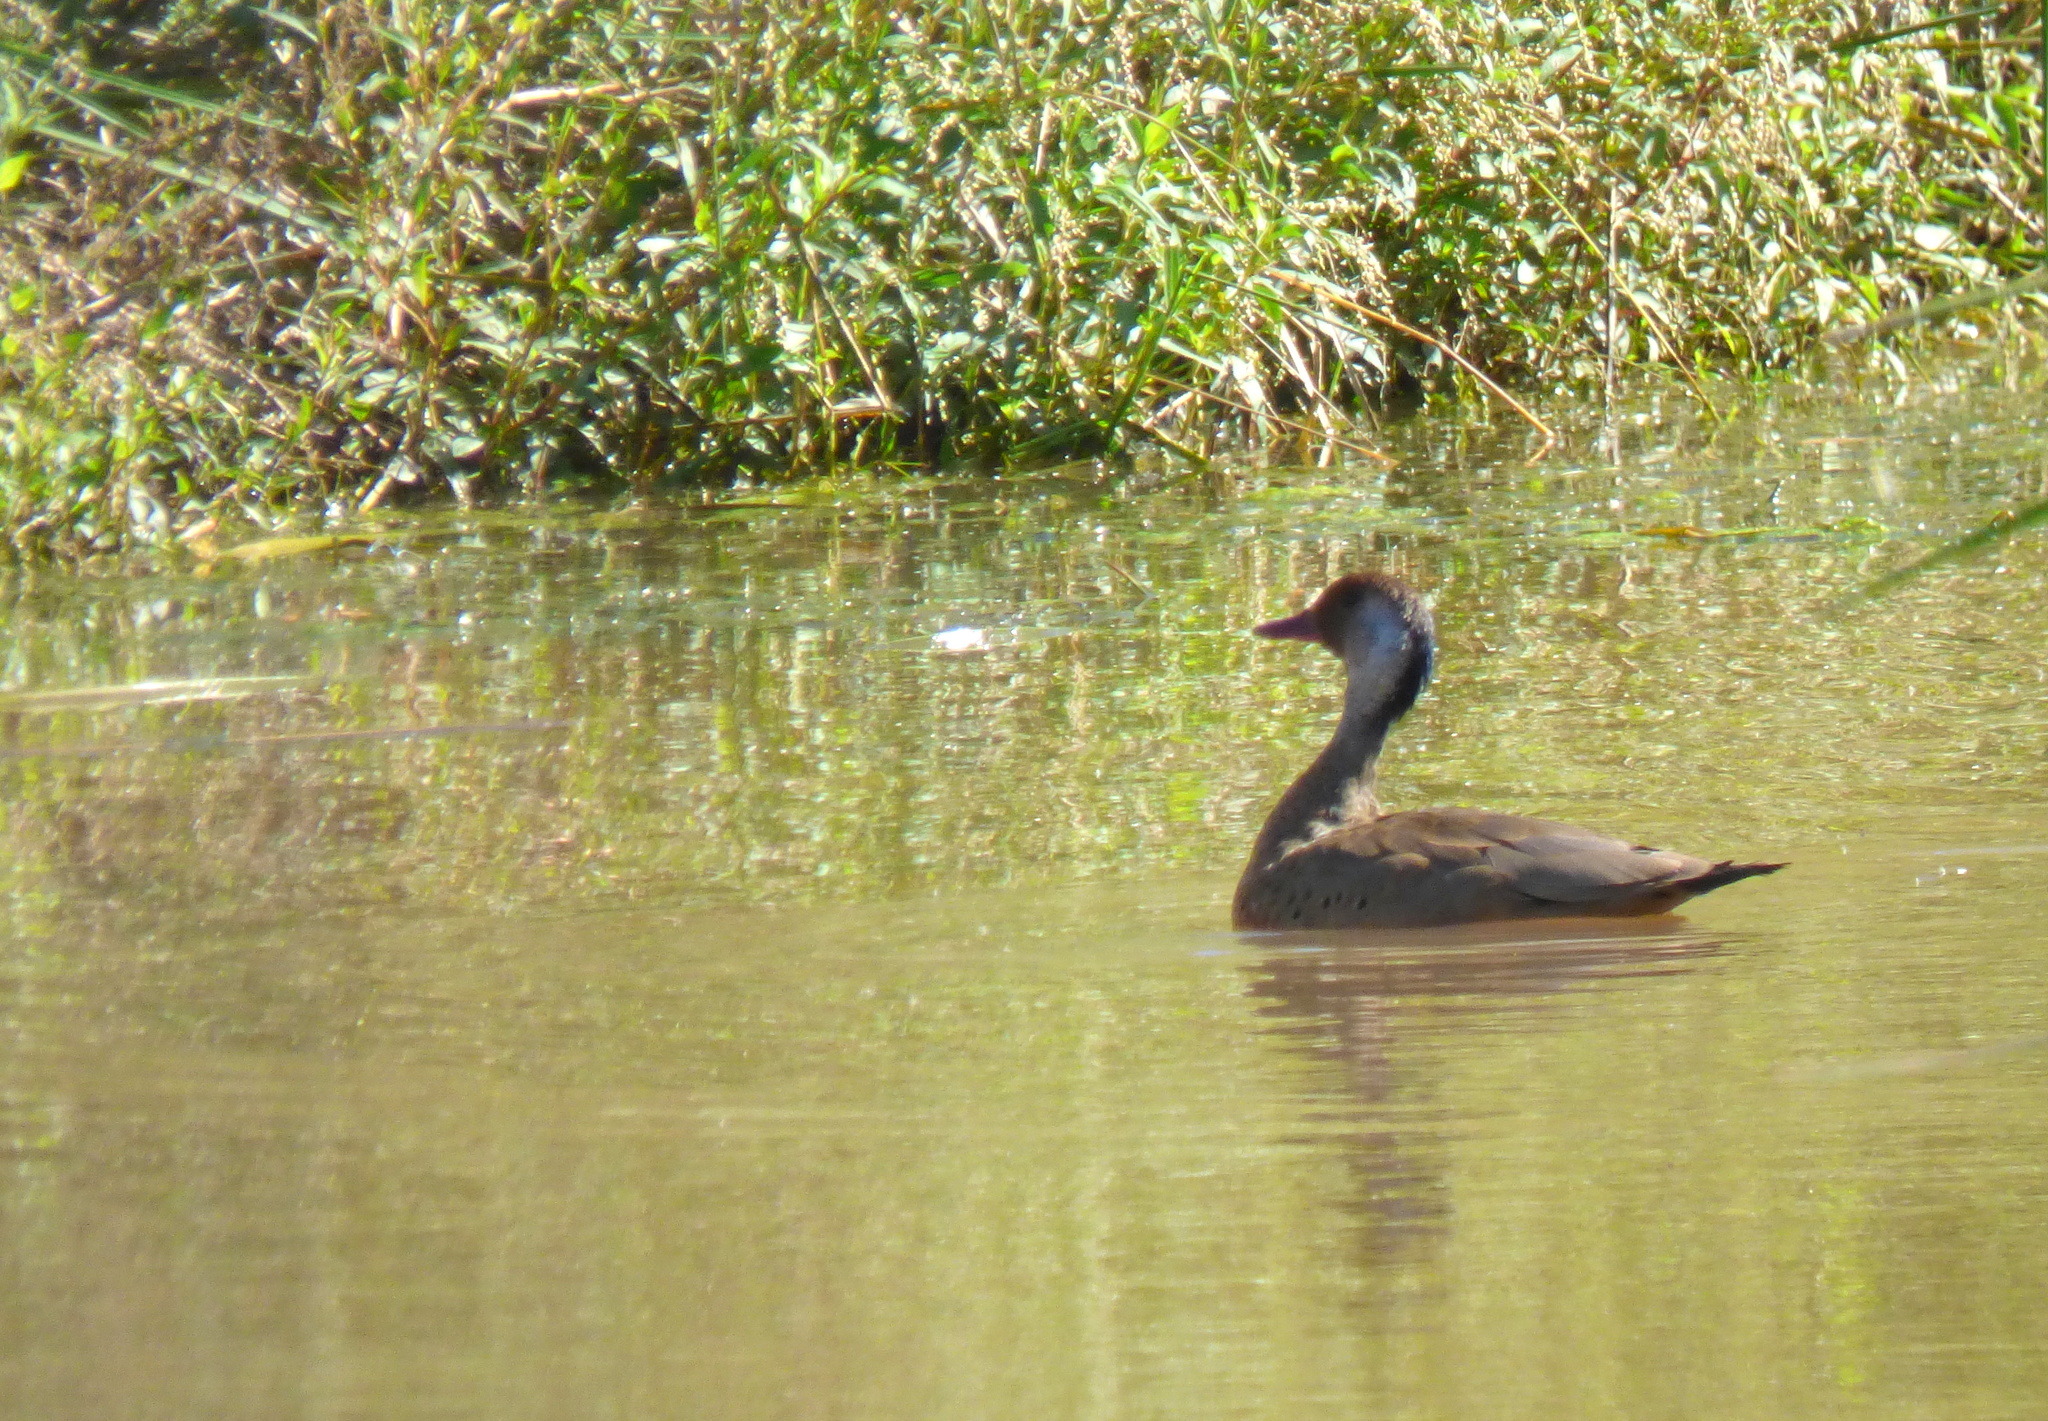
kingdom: Animalia
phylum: Chordata
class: Aves
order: Anseriformes
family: Anatidae
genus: Amazonetta
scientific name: Amazonetta brasiliensis
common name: Brazilian teal
